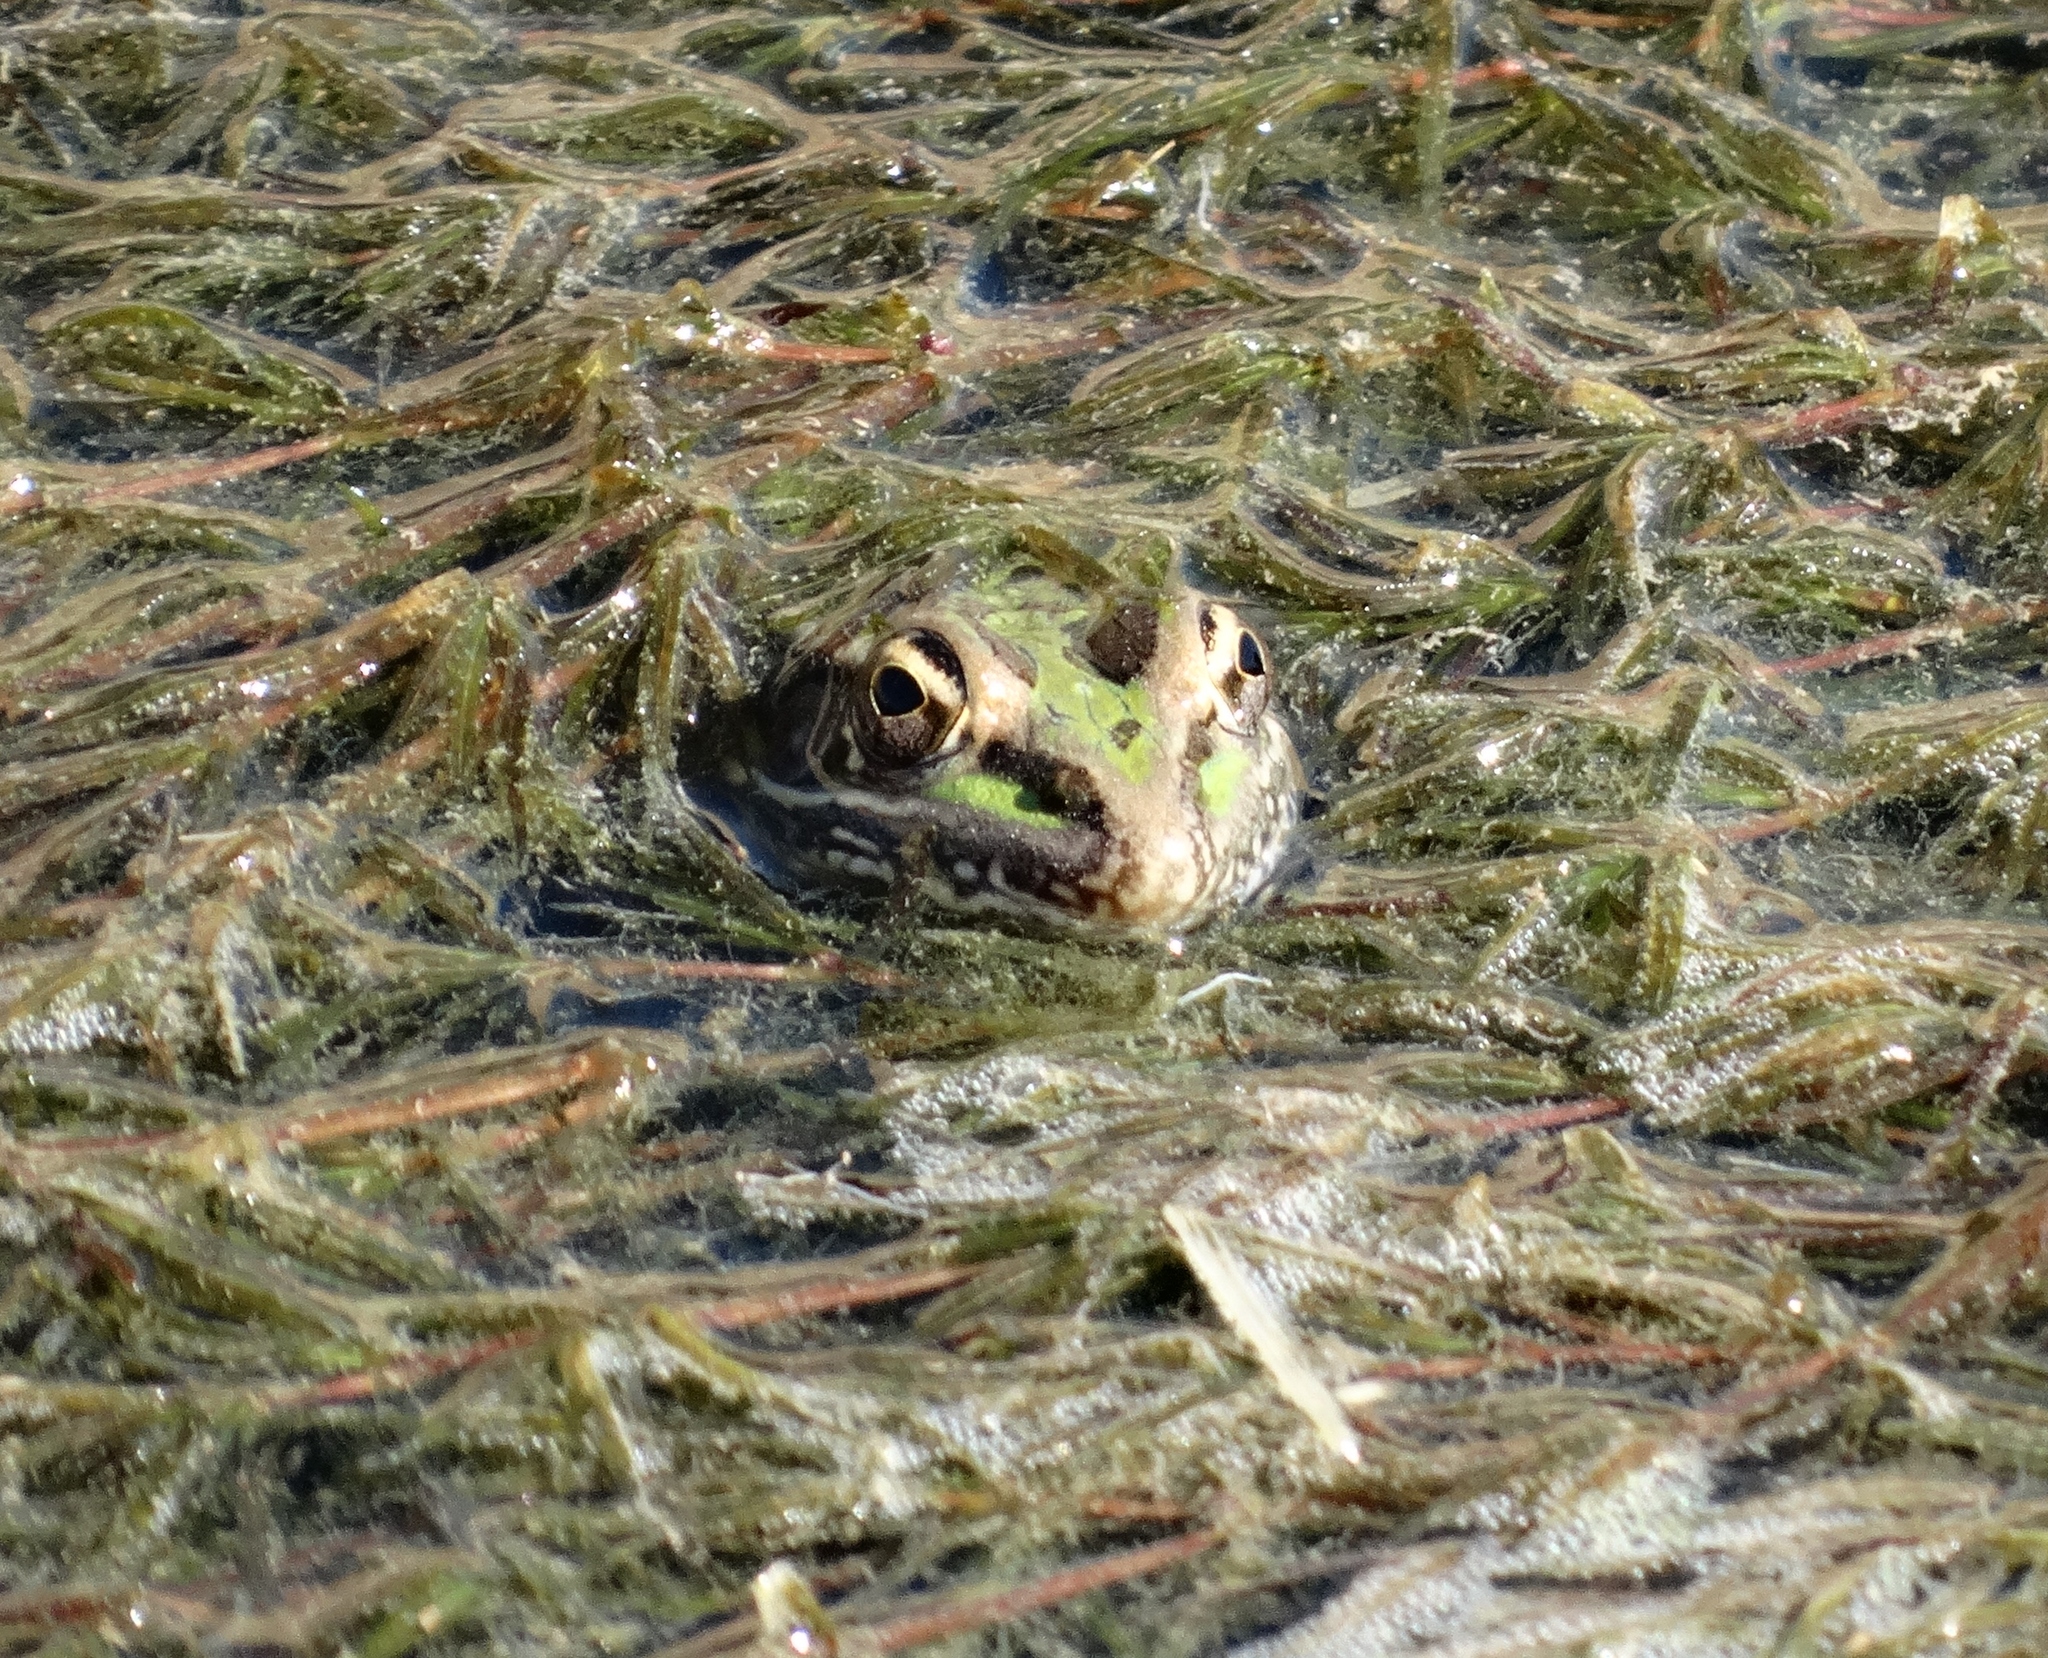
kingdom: Animalia
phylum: Chordata
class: Amphibia
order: Anura
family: Ranidae
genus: Lithobates
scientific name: Lithobates berlandieri
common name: Rio grande leopard frog
